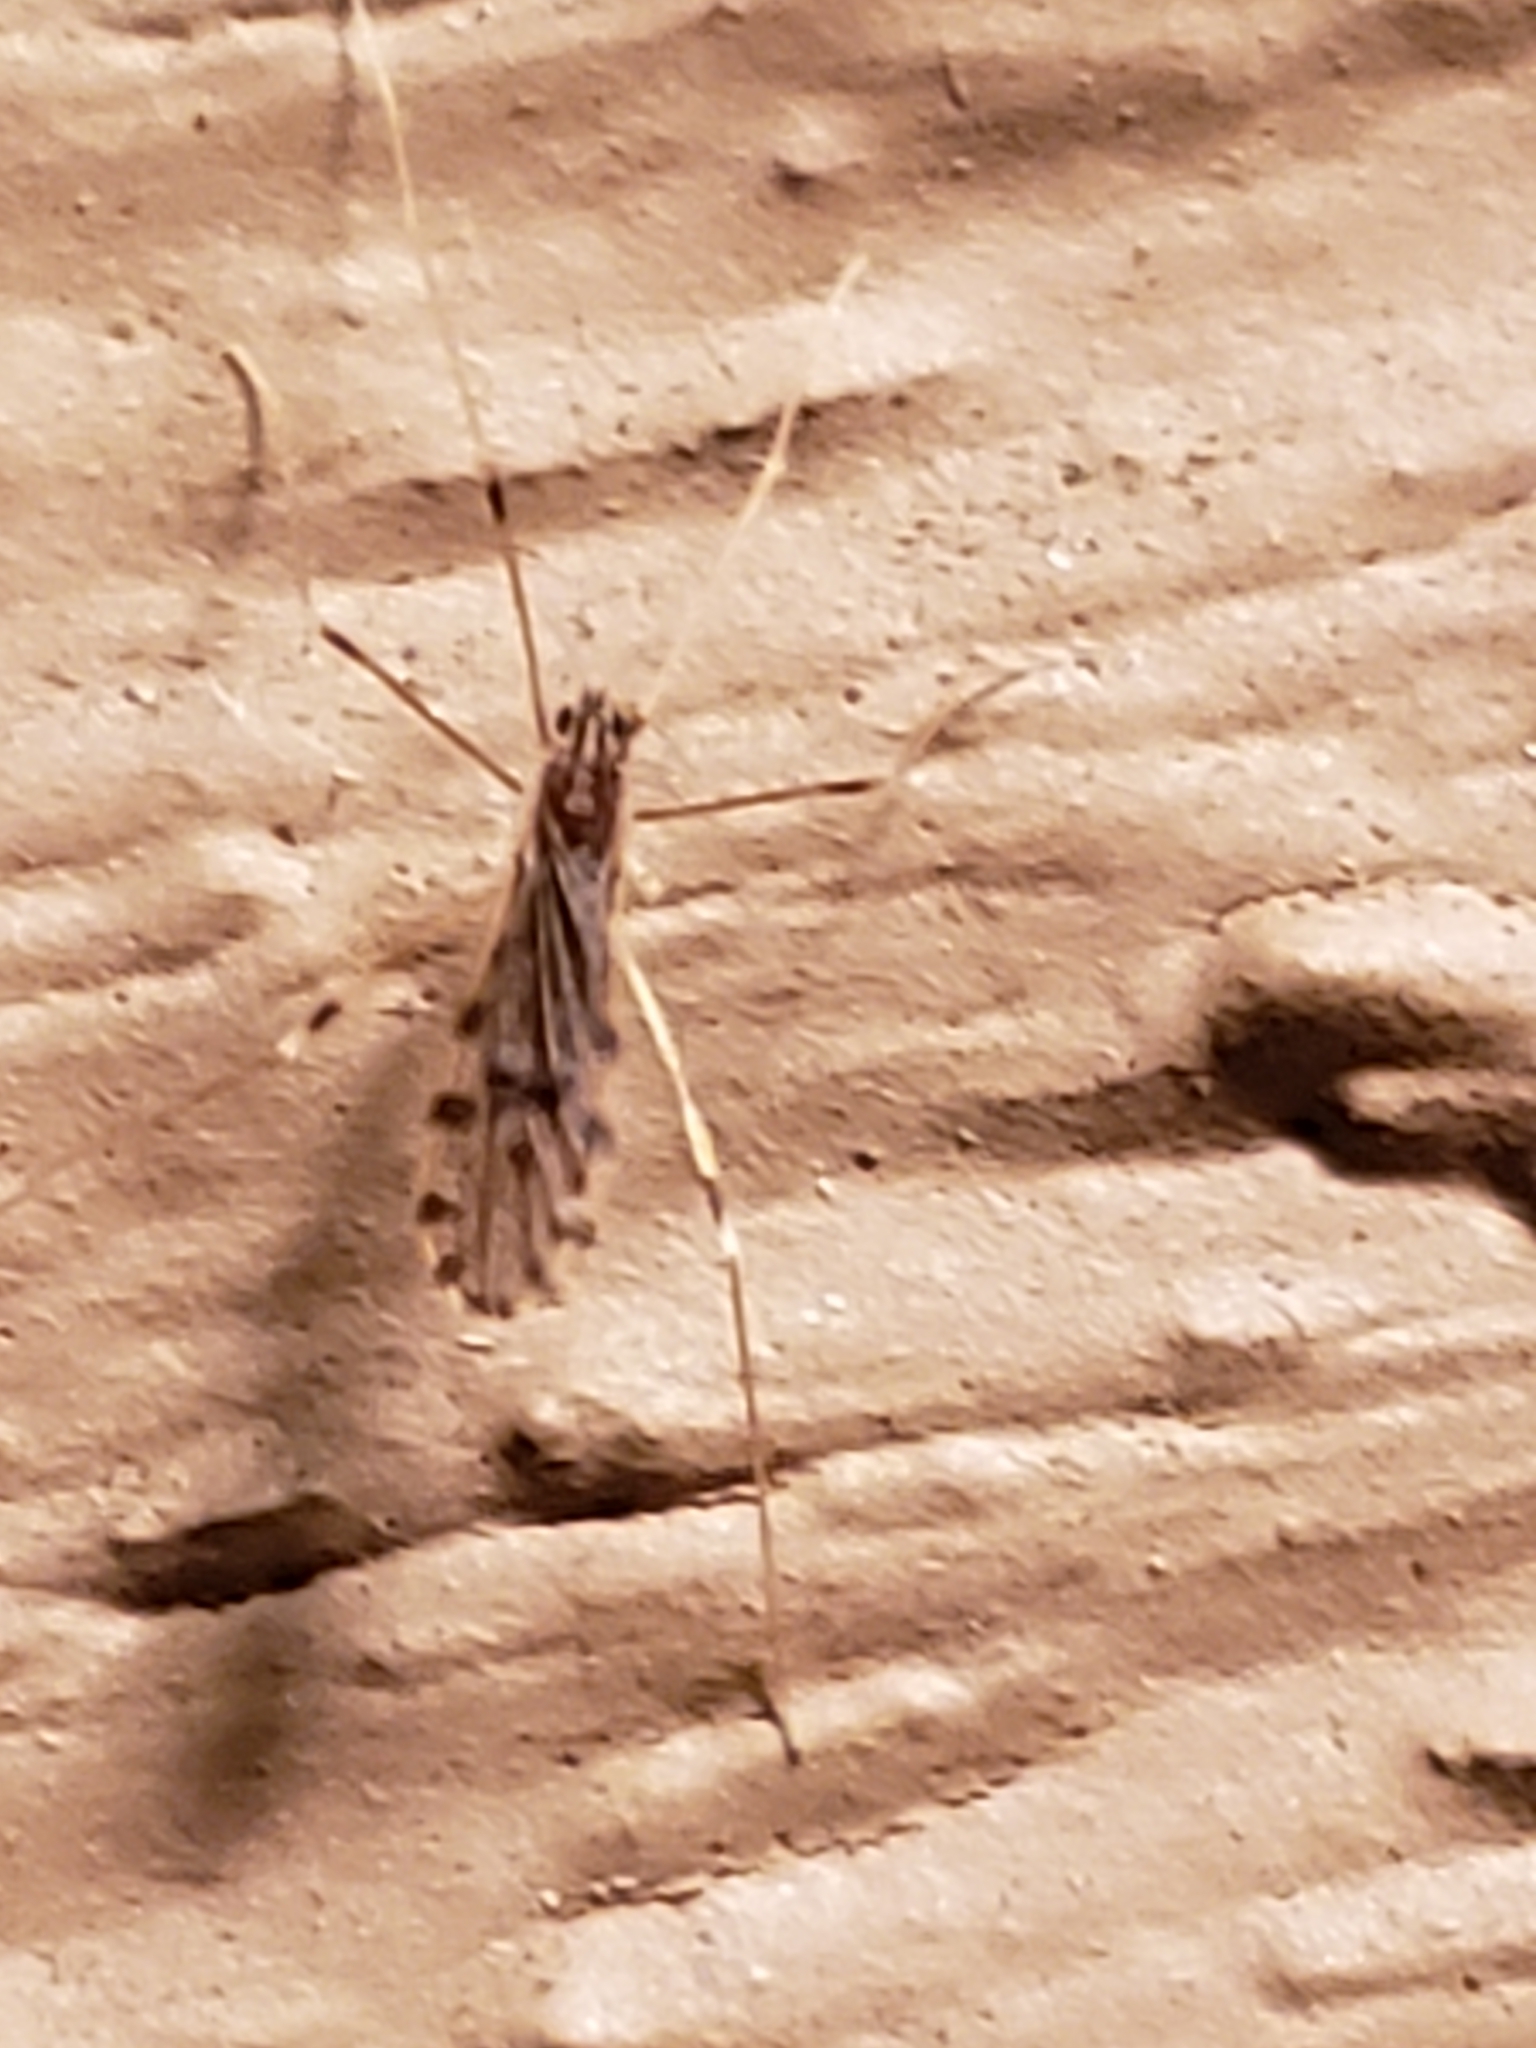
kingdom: Animalia
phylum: Arthropoda
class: Insecta
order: Diptera
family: Limoniidae
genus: Erioptera
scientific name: Erioptera parva
